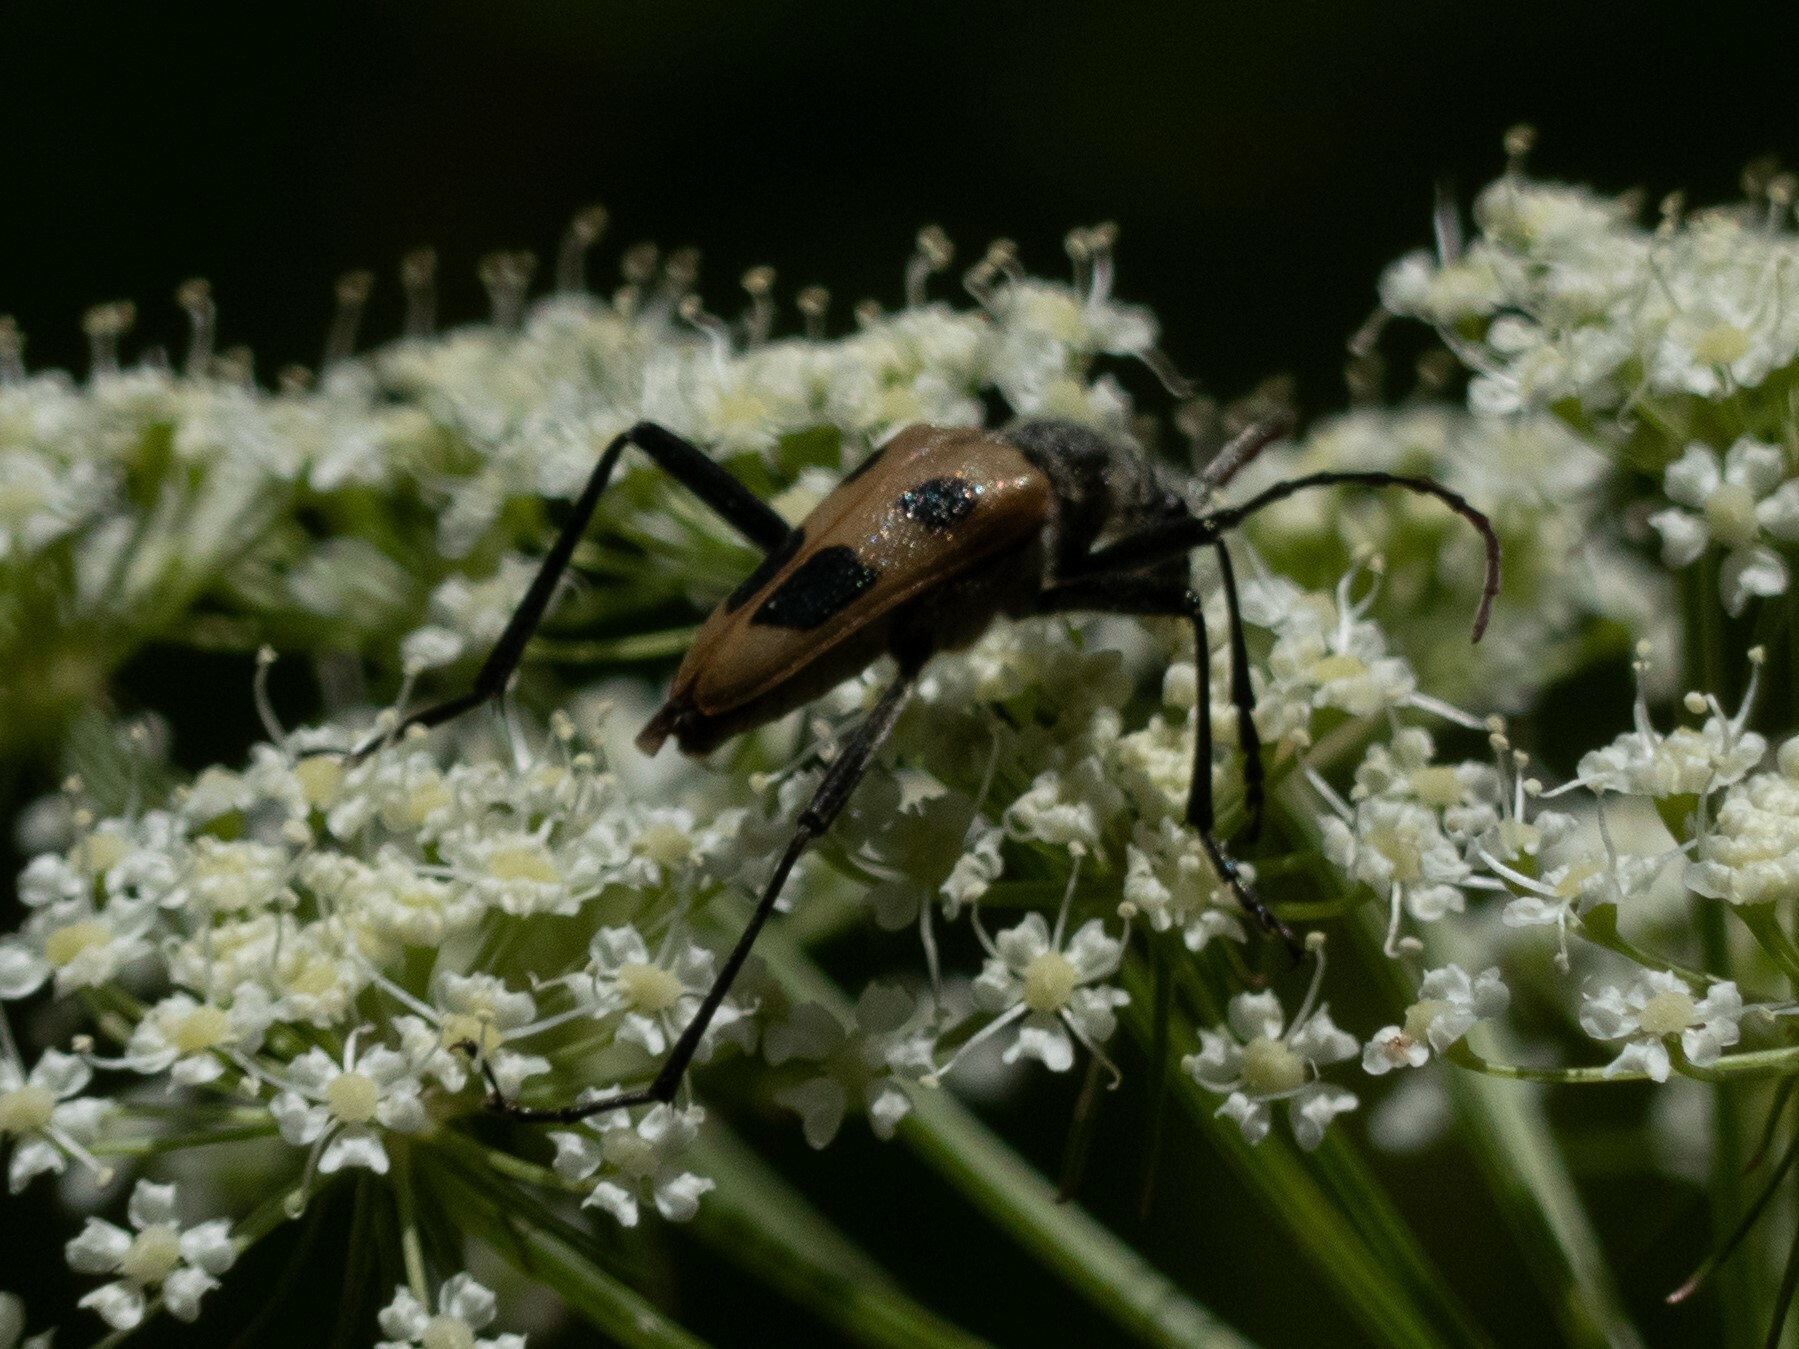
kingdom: Animalia
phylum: Arthropoda
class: Insecta
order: Coleoptera
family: Cerambycidae
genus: Pachyta
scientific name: Pachyta quadrimaculata
